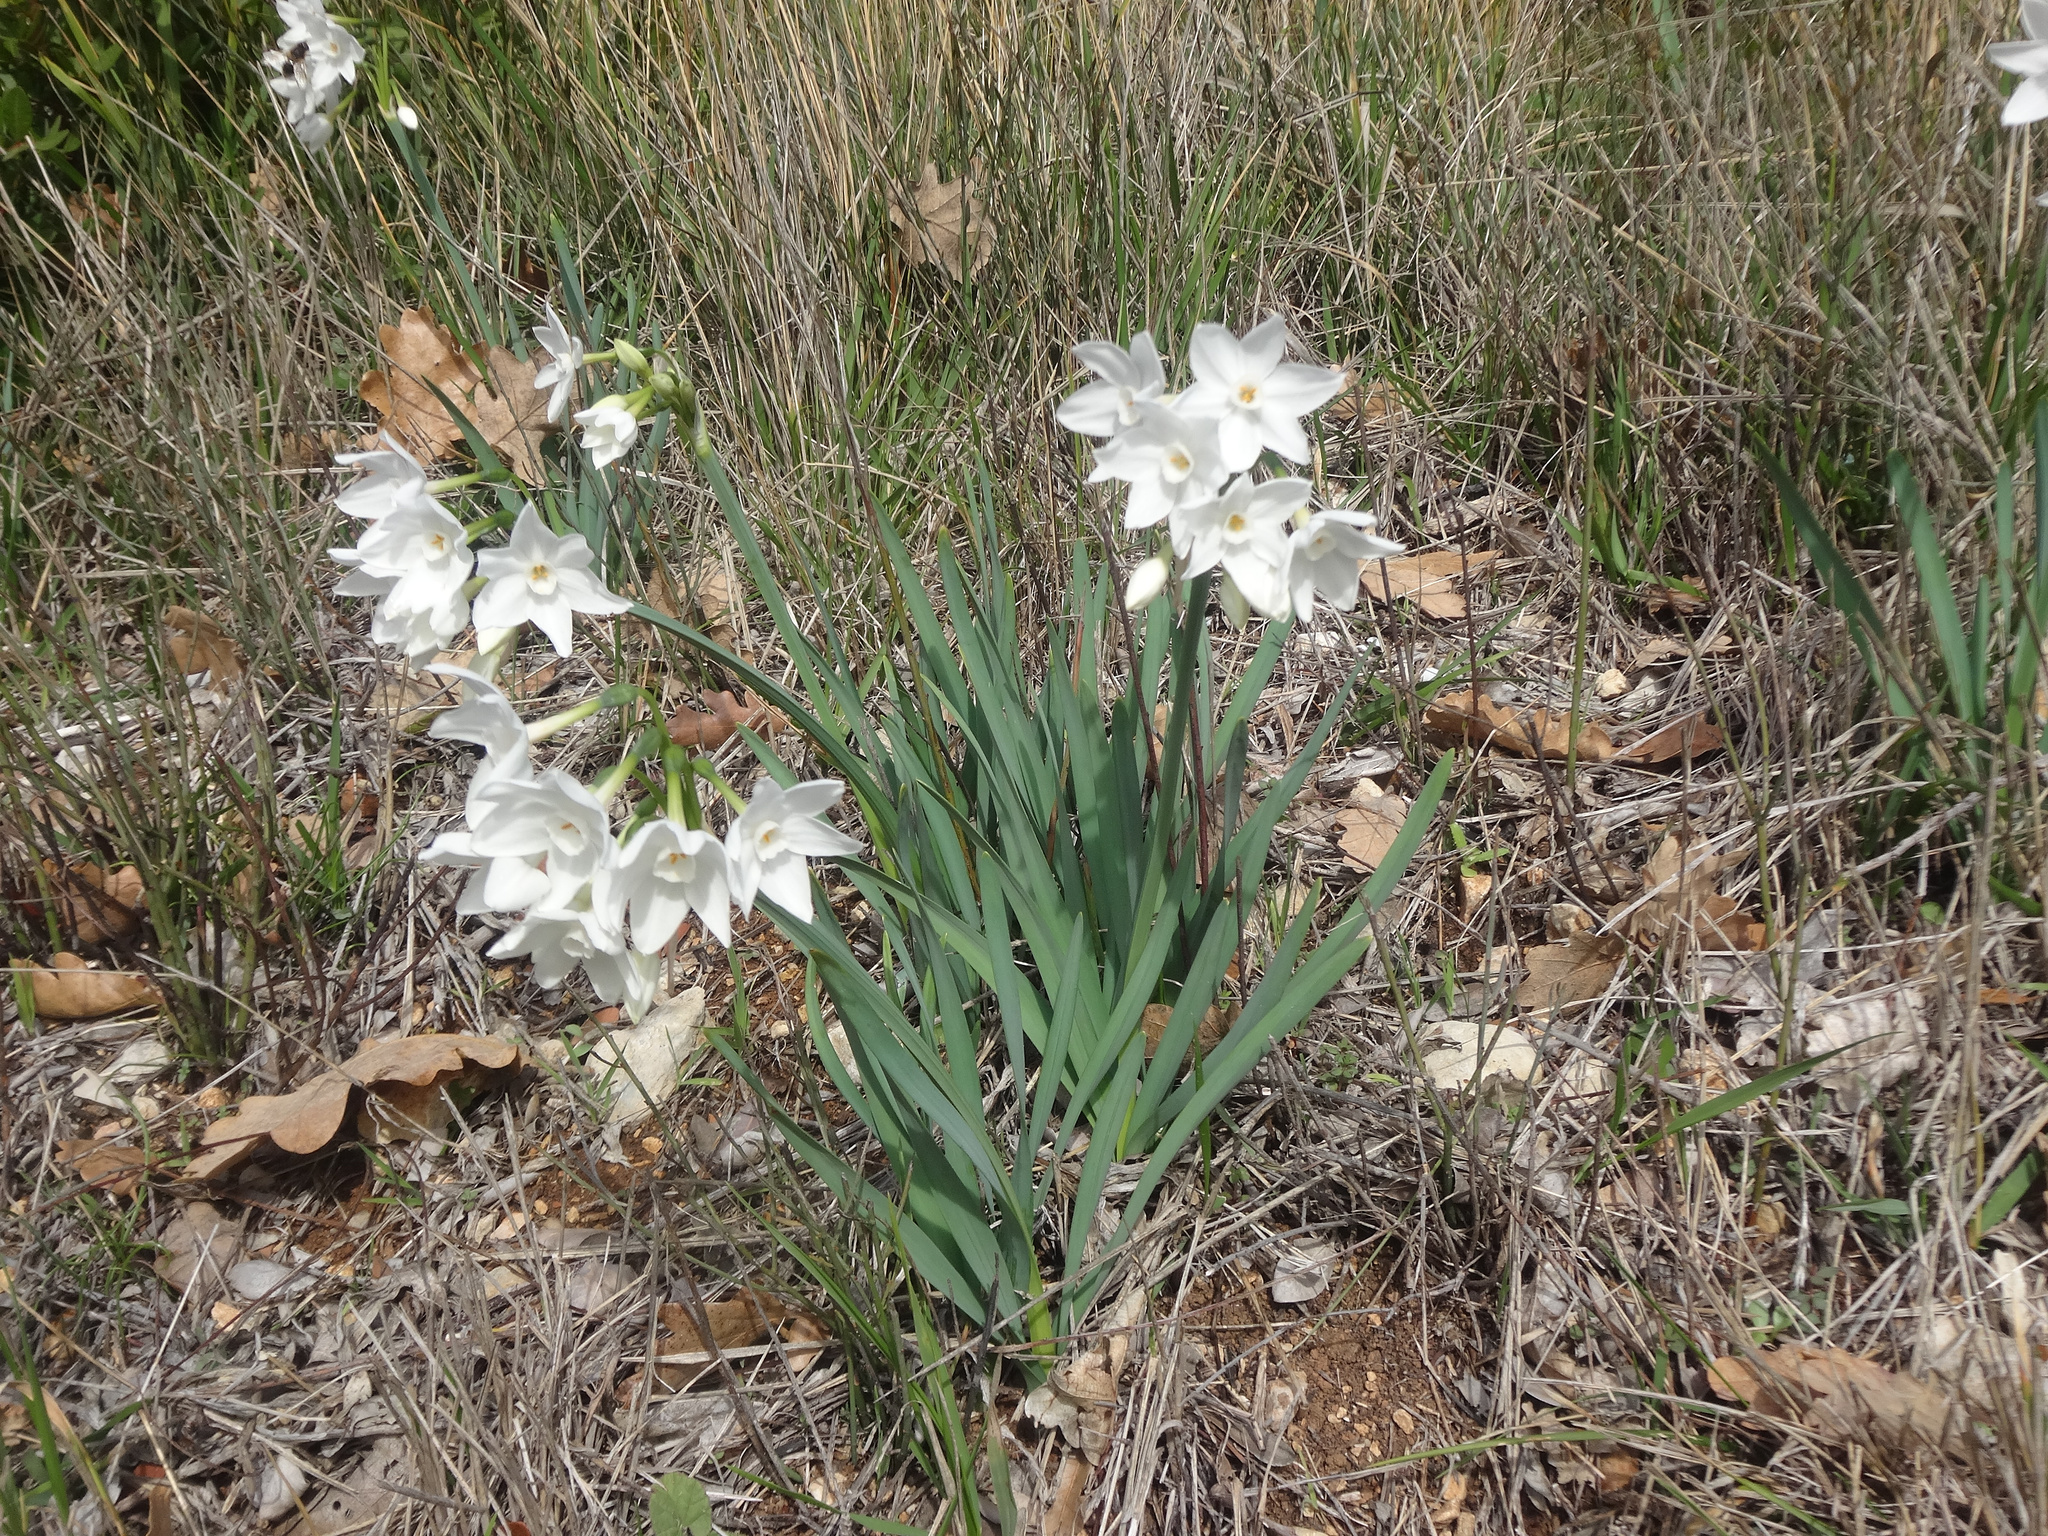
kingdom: Plantae
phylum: Tracheophyta
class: Liliopsida
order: Asparagales
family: Amaryllidaceae
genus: Narcissus
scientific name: Narcissus papyraceus
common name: Paper-white daffodil
